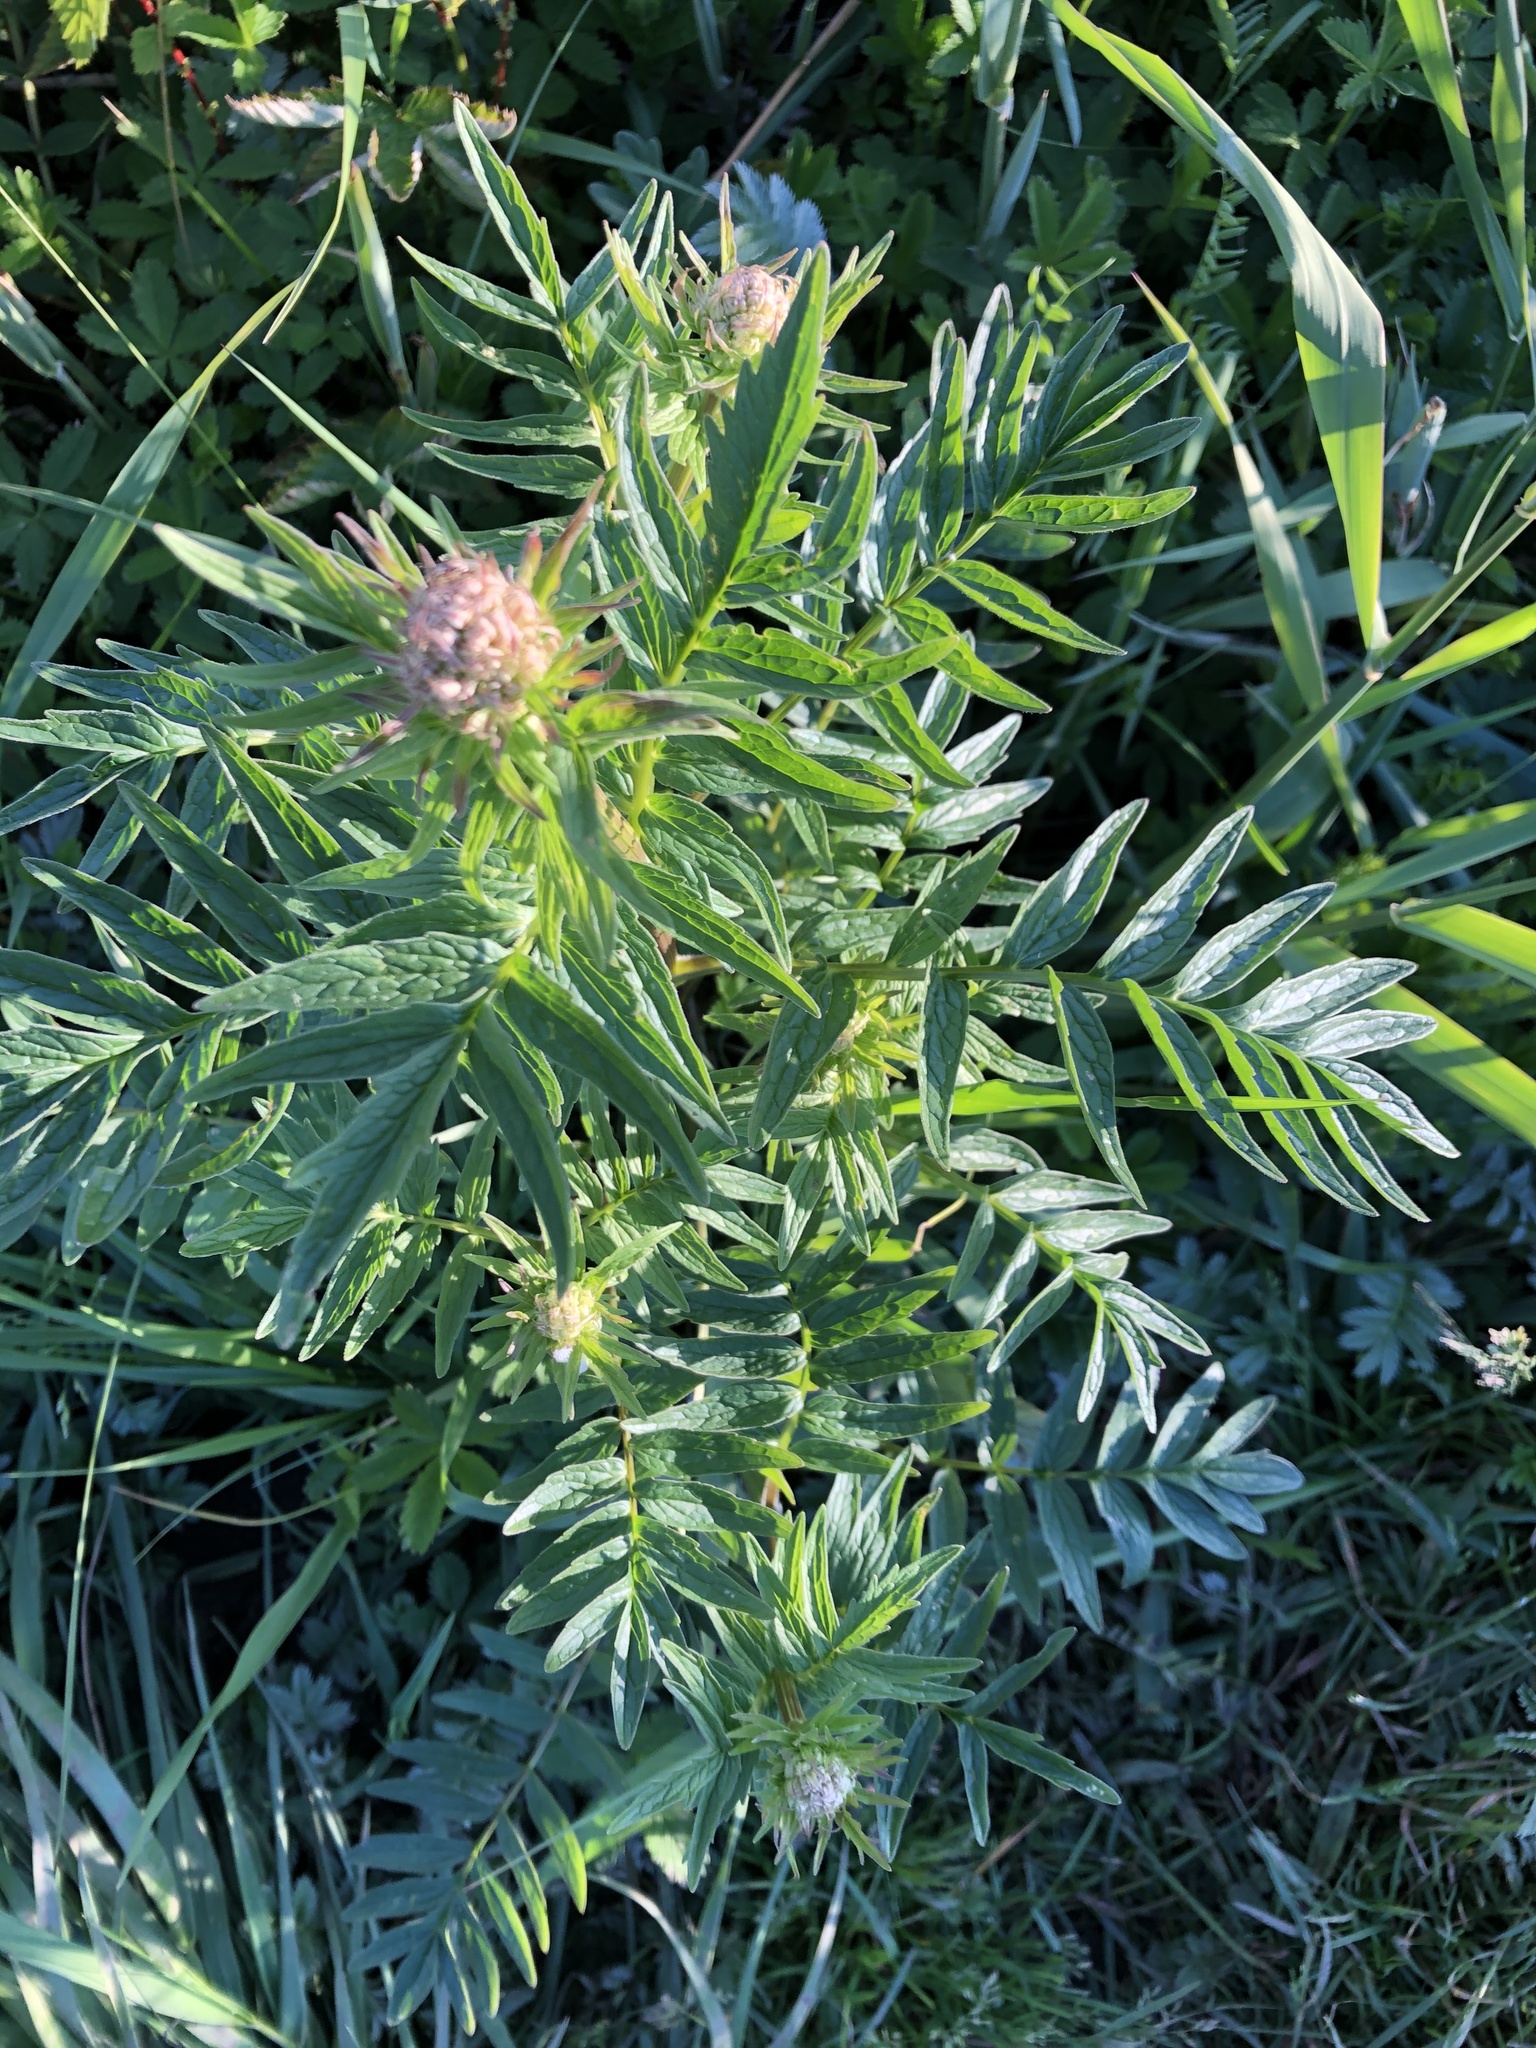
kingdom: Plantae
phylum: Tracheophyta
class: Magnoliopsida
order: Dipsacales
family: Caprifoliaceae
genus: Valeriana
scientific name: Valeriana officinalis
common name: Common valerian
